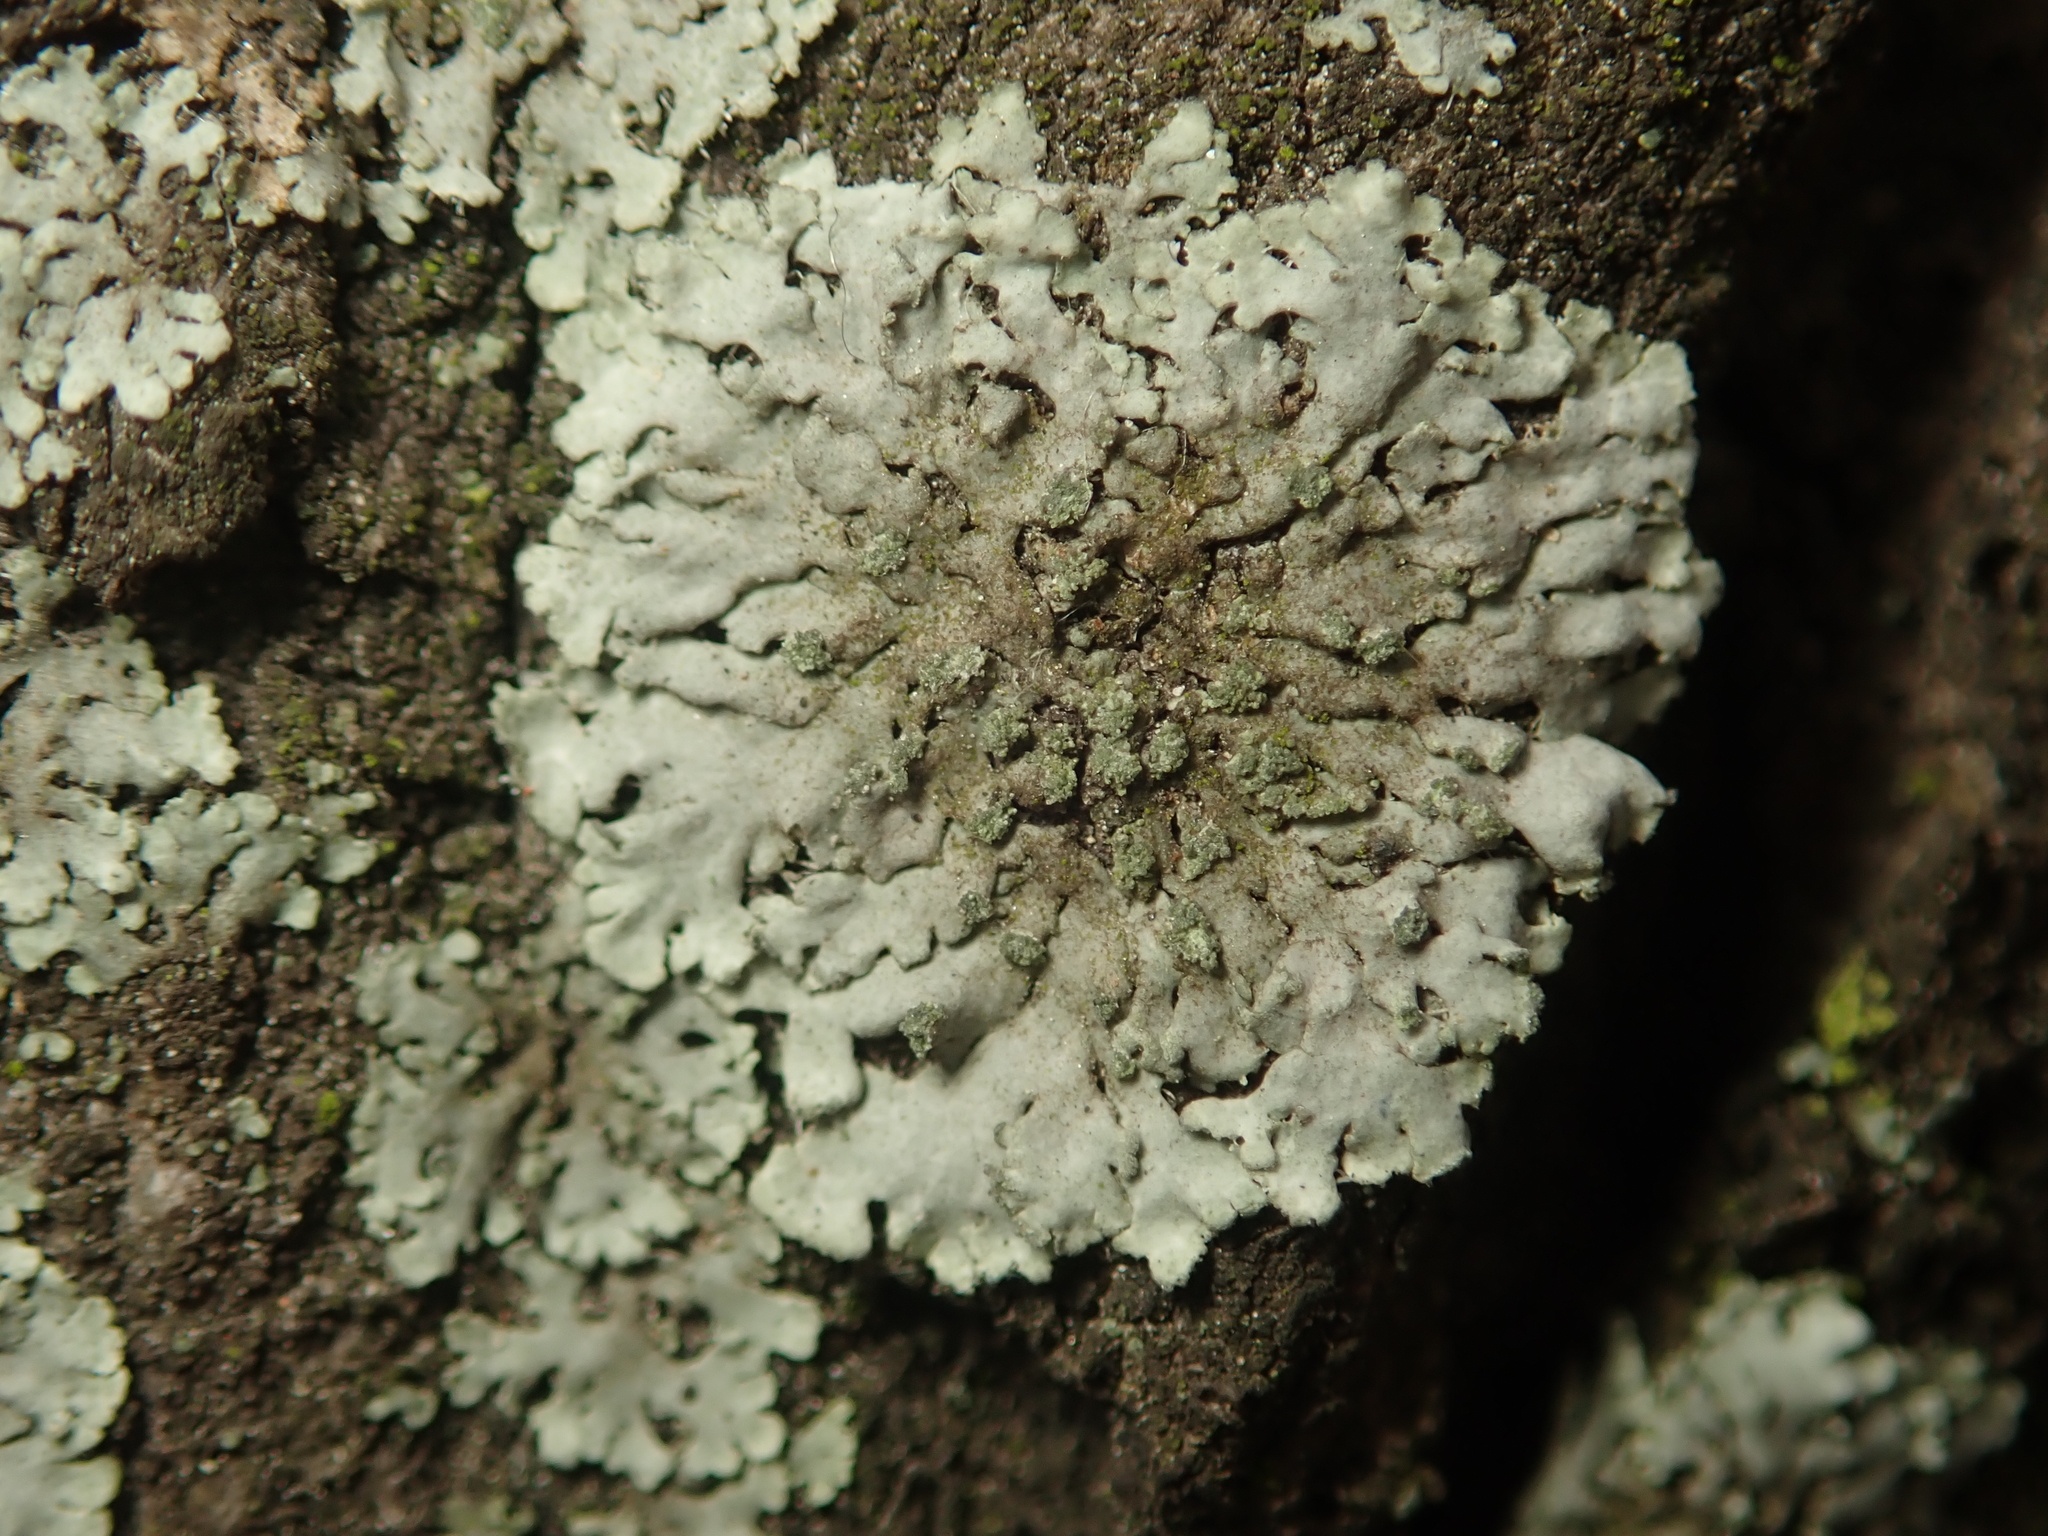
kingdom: Fungi
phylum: Ascomycota
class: Lecanoromycetes
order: Caliciales
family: Physciaceae
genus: Phaeophyscia
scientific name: Phaeophyscia orbicularis
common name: Mealy shadow lichen
